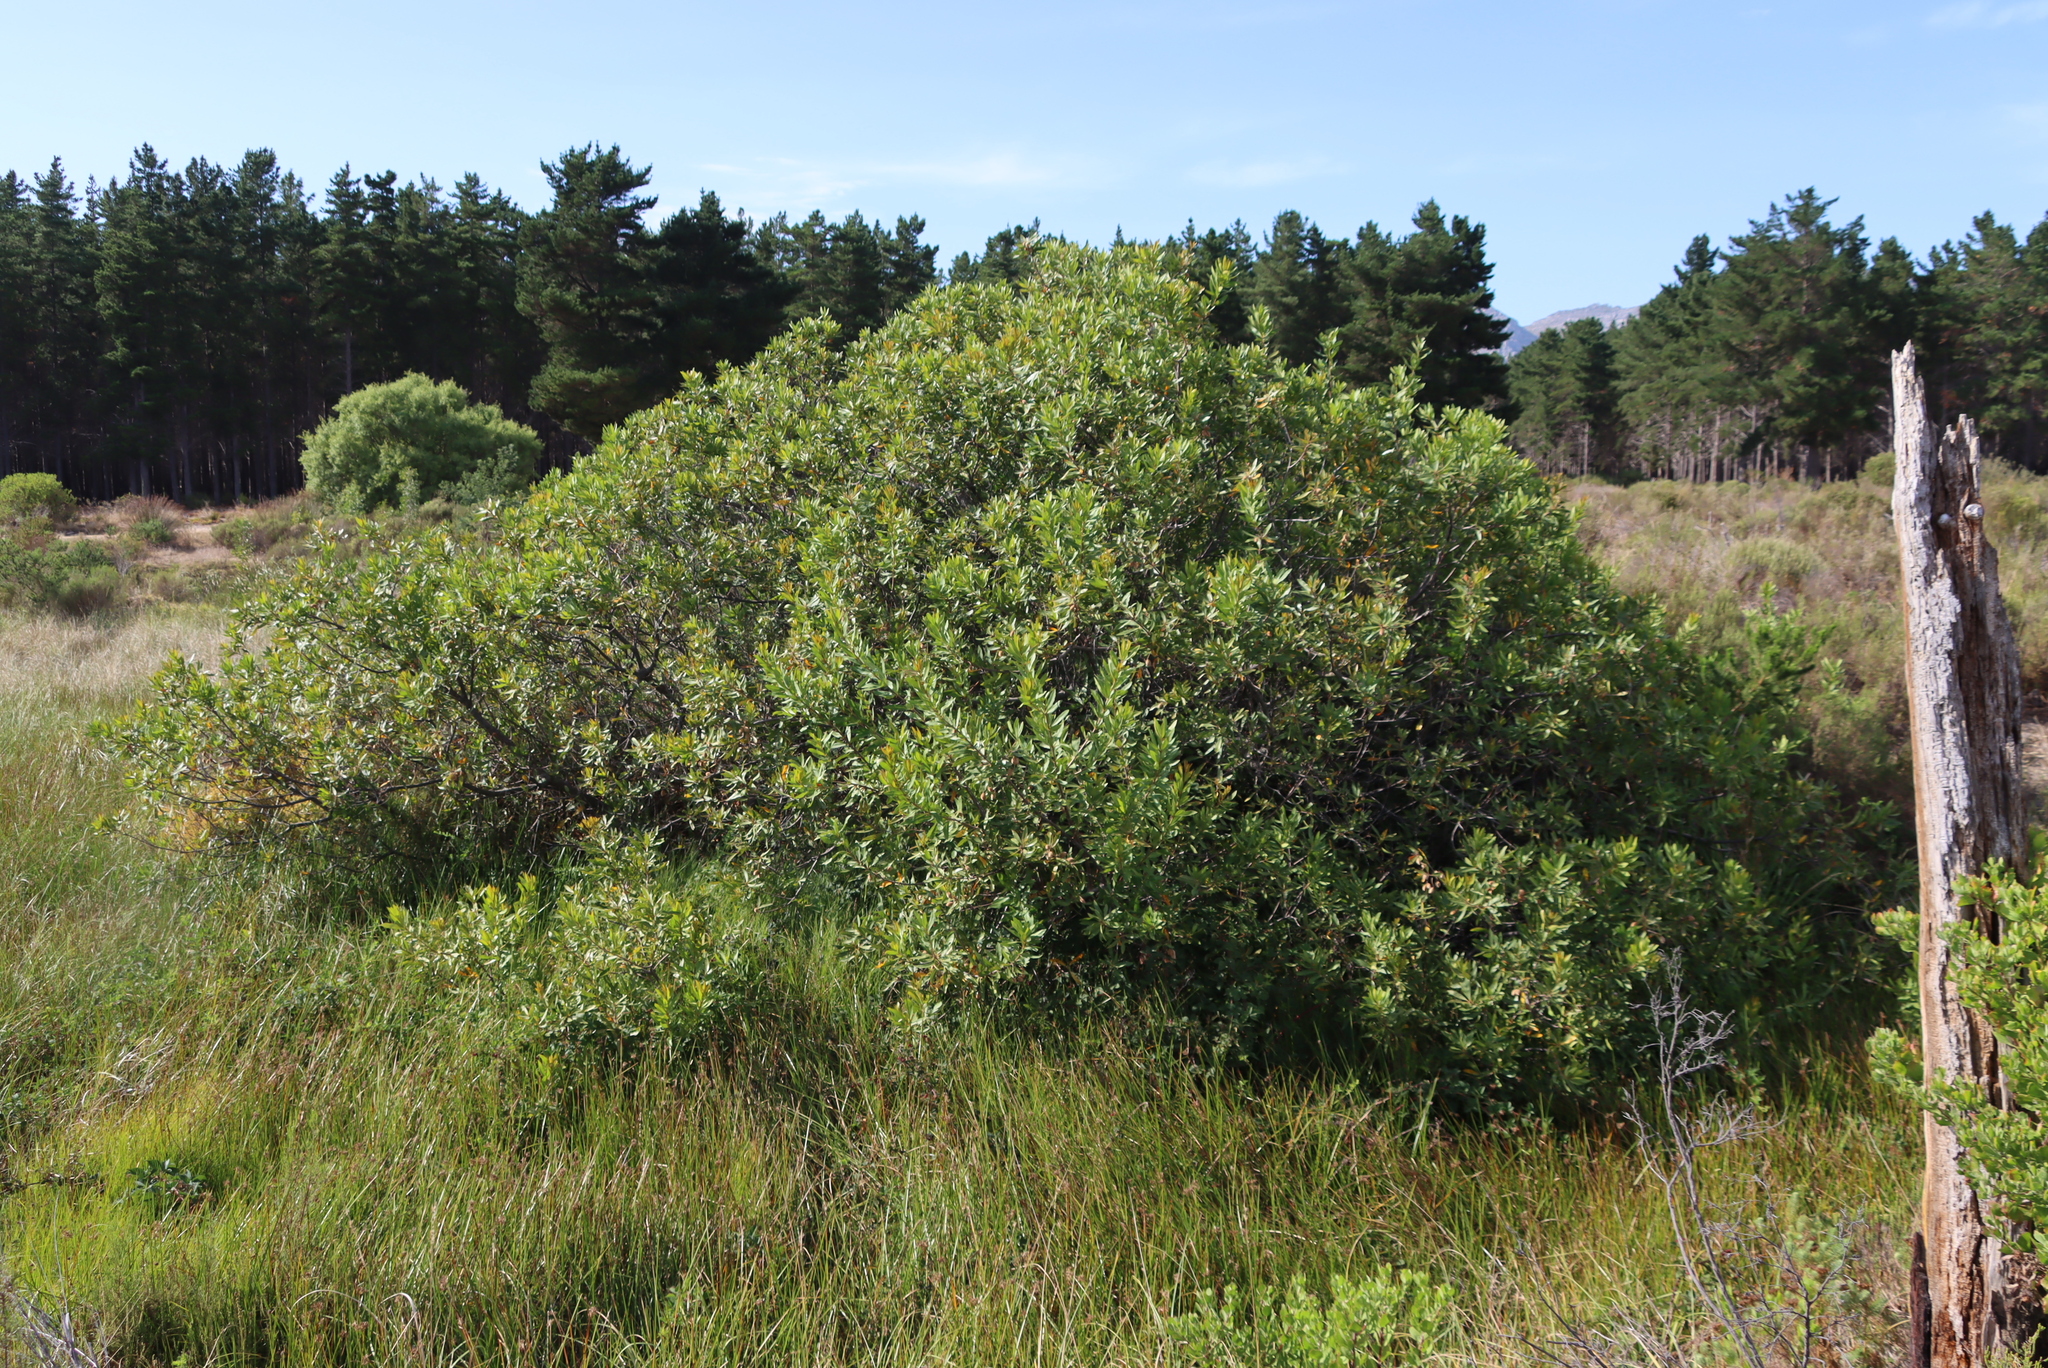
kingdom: Plantae
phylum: Tracheophyta
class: Magnoliopsida
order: Proteales
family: Proteaceae
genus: Brabejum
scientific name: Brabejum stellatifolium
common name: Wild almond
